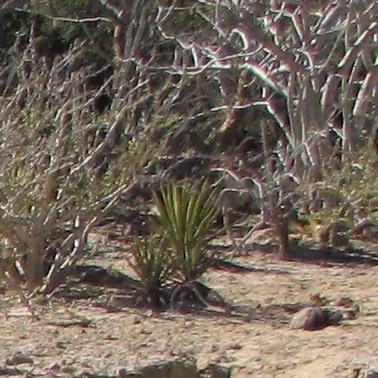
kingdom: Plantae
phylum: Tracheophyta
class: Liliopsida
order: Asparagales
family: Asparagaceae
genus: Agave
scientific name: Agave datylio
